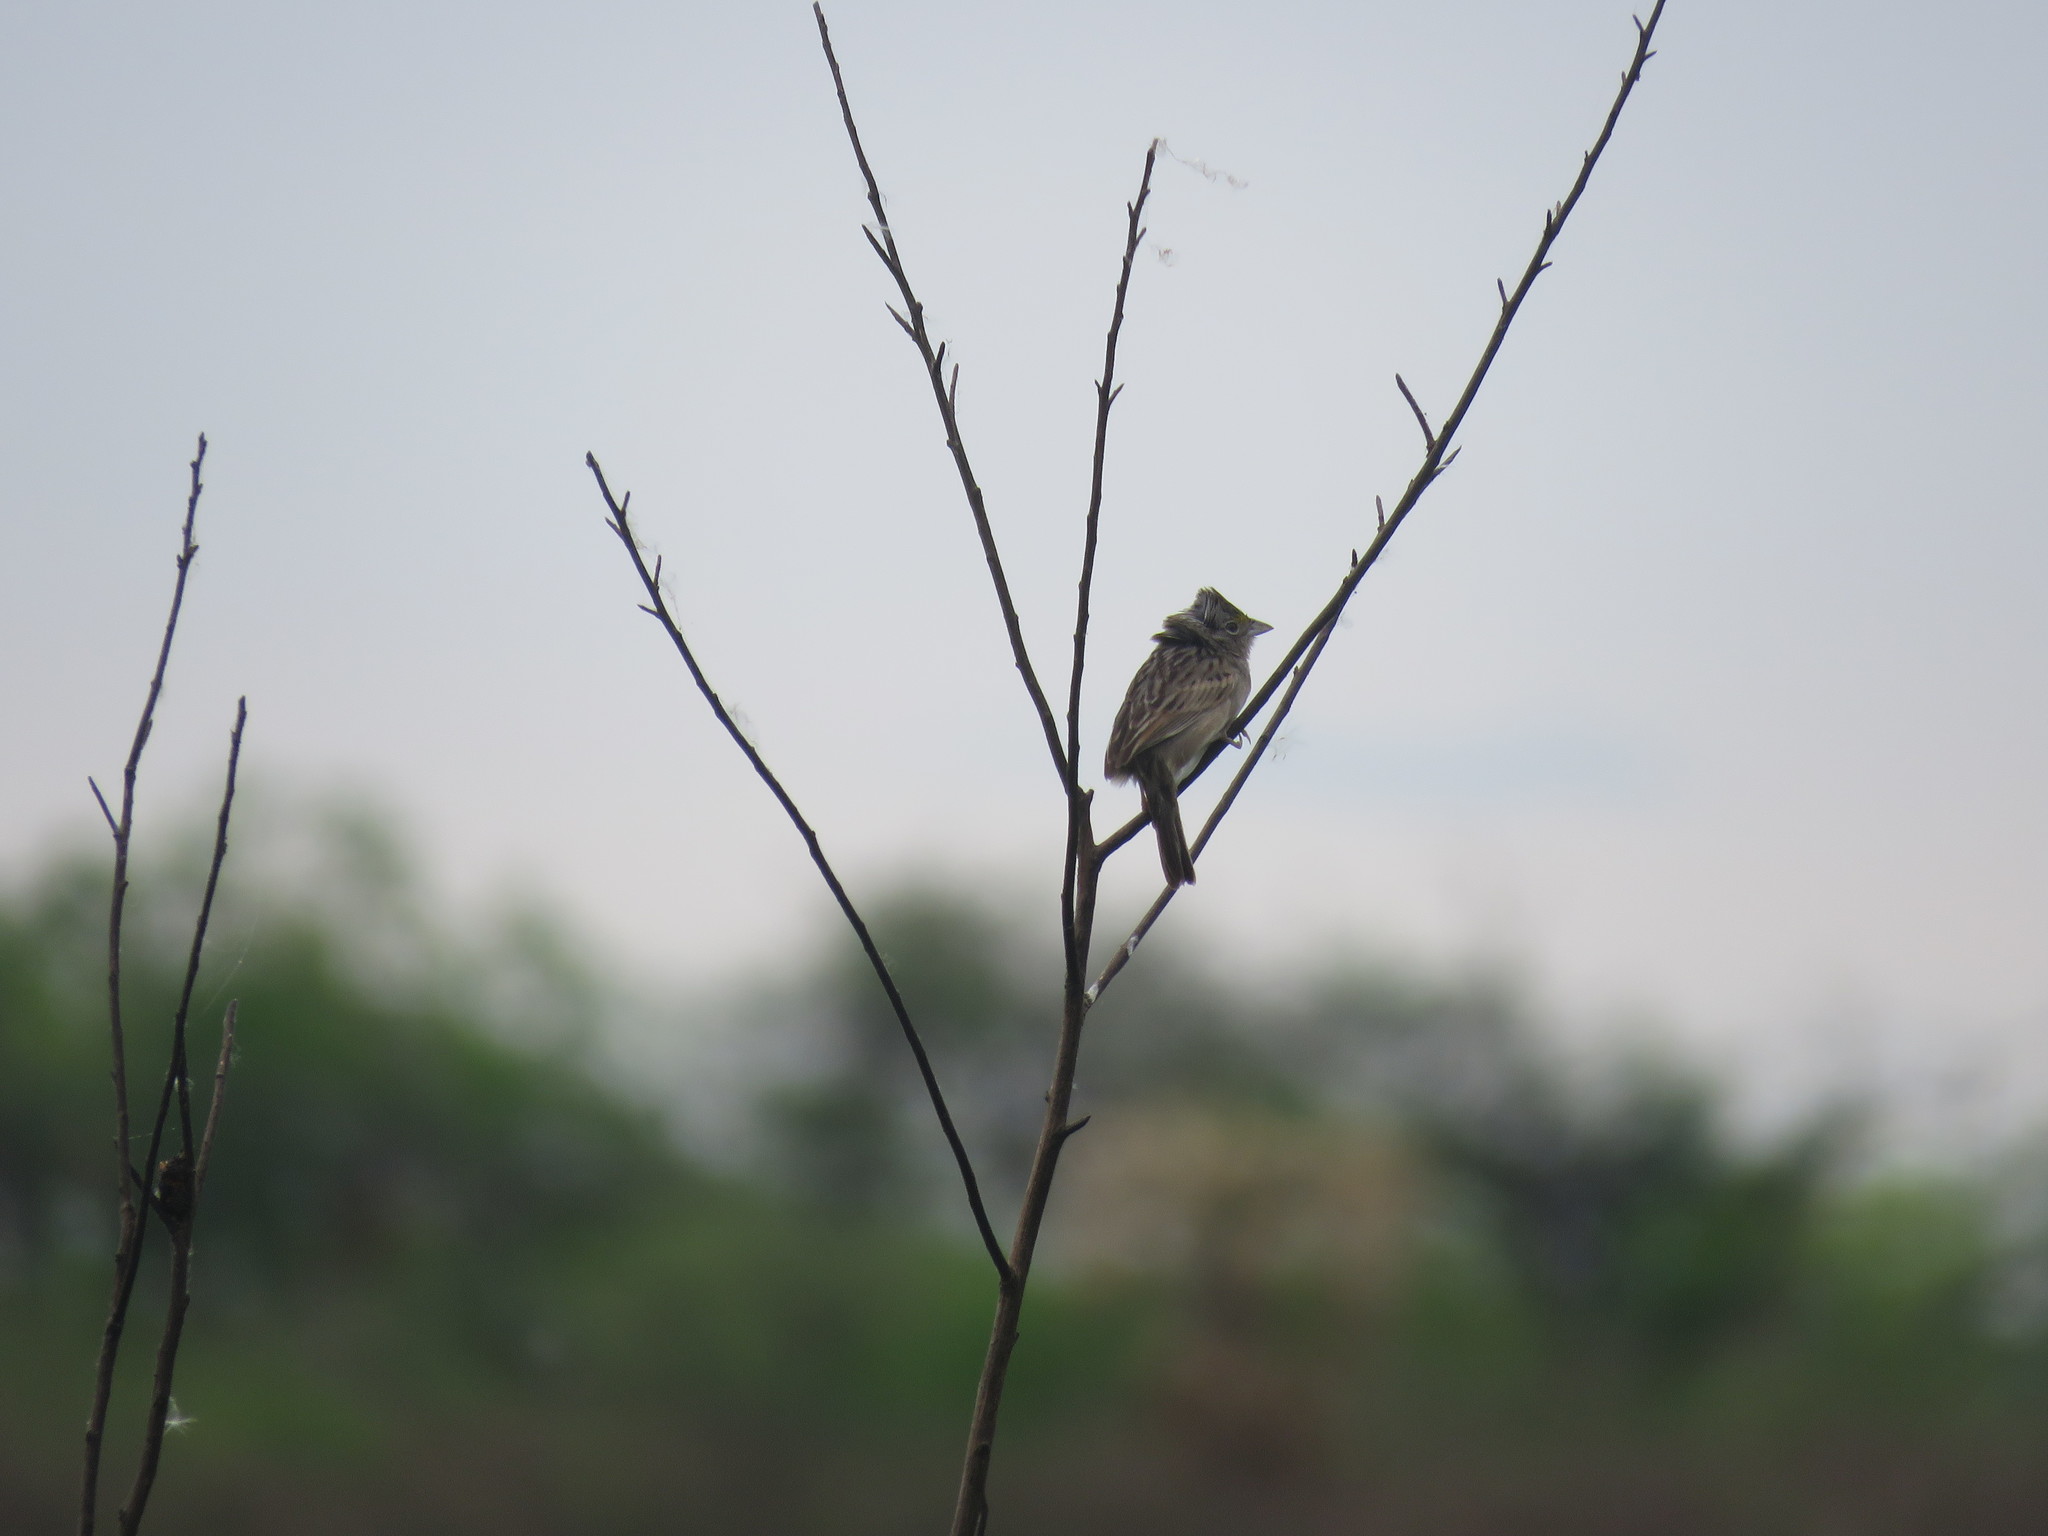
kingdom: Animalia
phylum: Chordata
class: Aves
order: Passeriformes
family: Passerellidae
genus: Ammodramus
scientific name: Ammodramus humeralis
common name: Grassland sparrow
